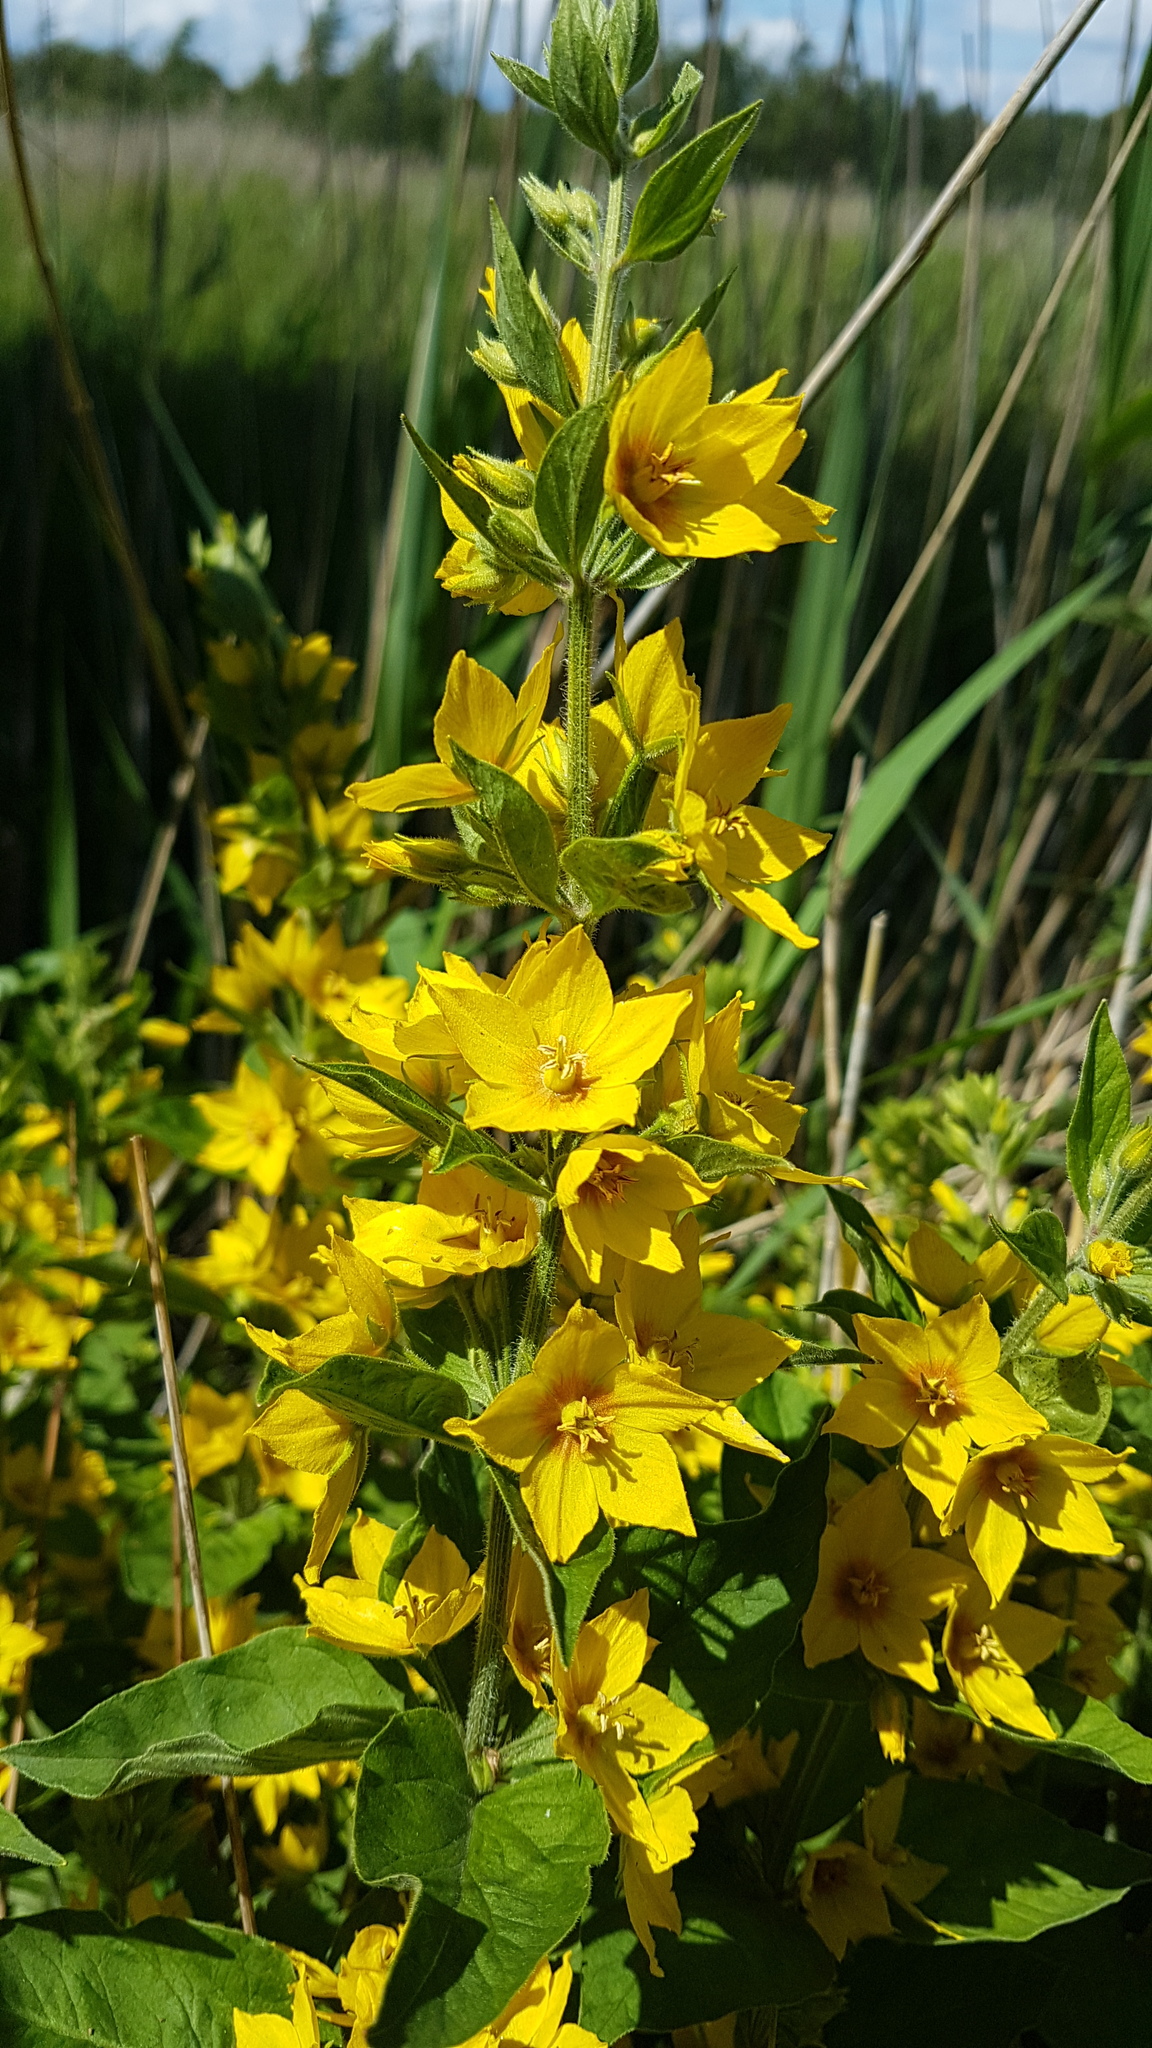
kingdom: Plantae
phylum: Tracheophyta
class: Magnoliopsida
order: Ericales
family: Primulaceae
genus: Lysimachia
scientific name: Lysimachia punctata
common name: Dotted loosestrife
